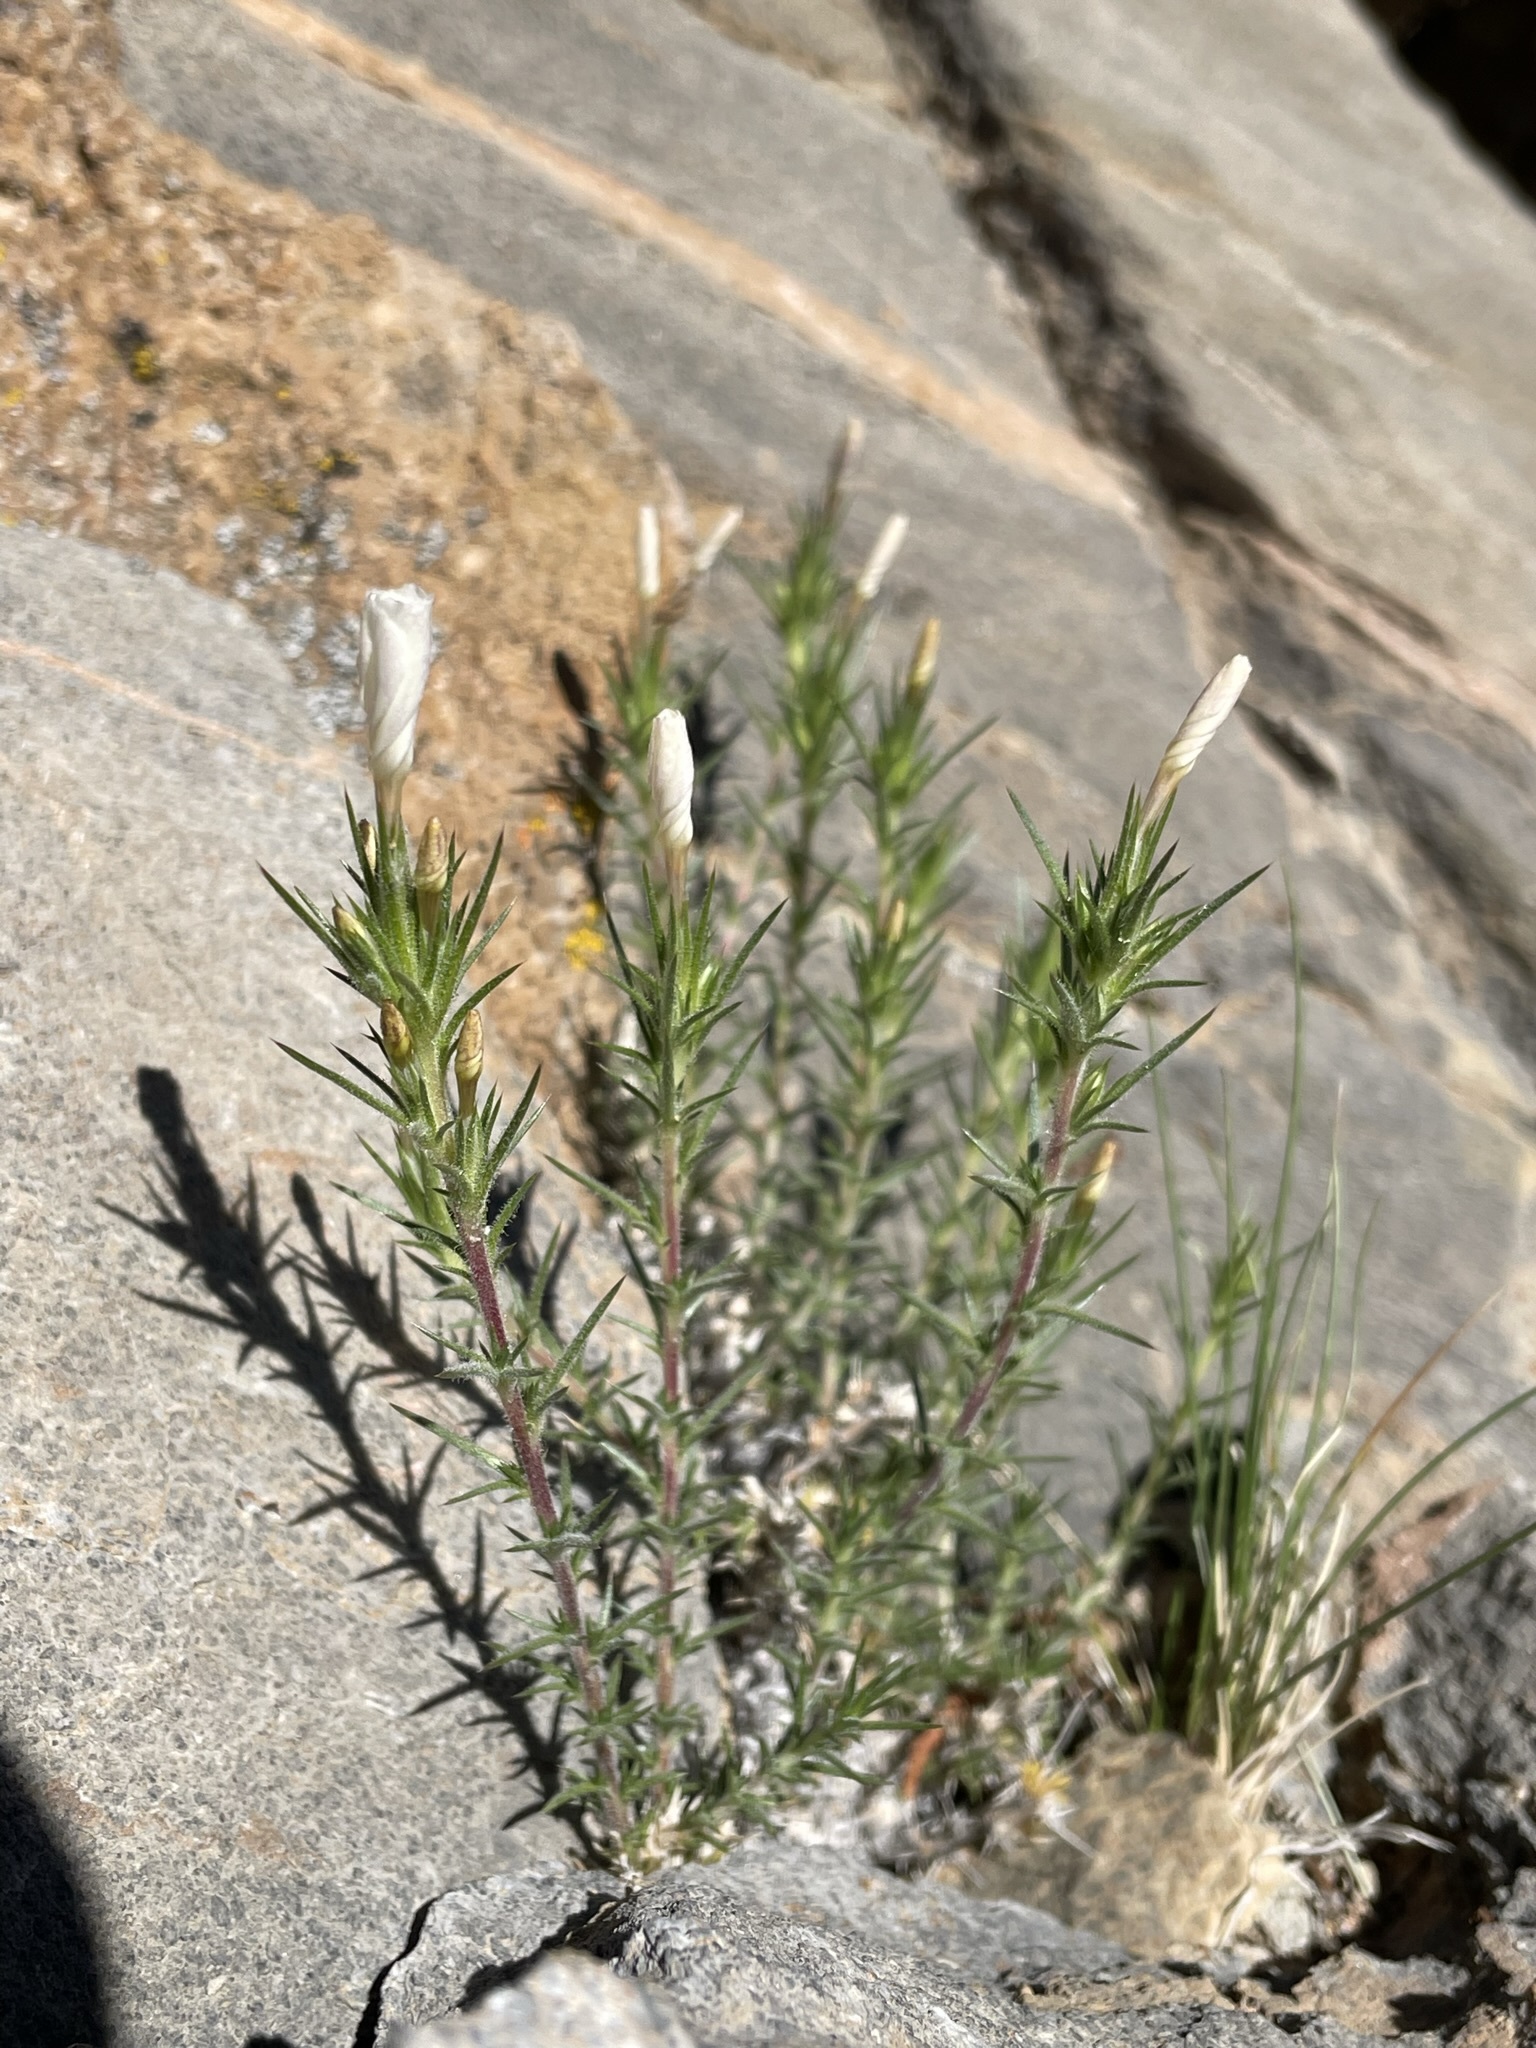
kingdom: Plantae
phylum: Tracheophyta
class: Magnoliopsida
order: Ericales
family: Polemoniaceae
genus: Linanthus
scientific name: Linanthus pungens
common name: Granite prickly phlox
